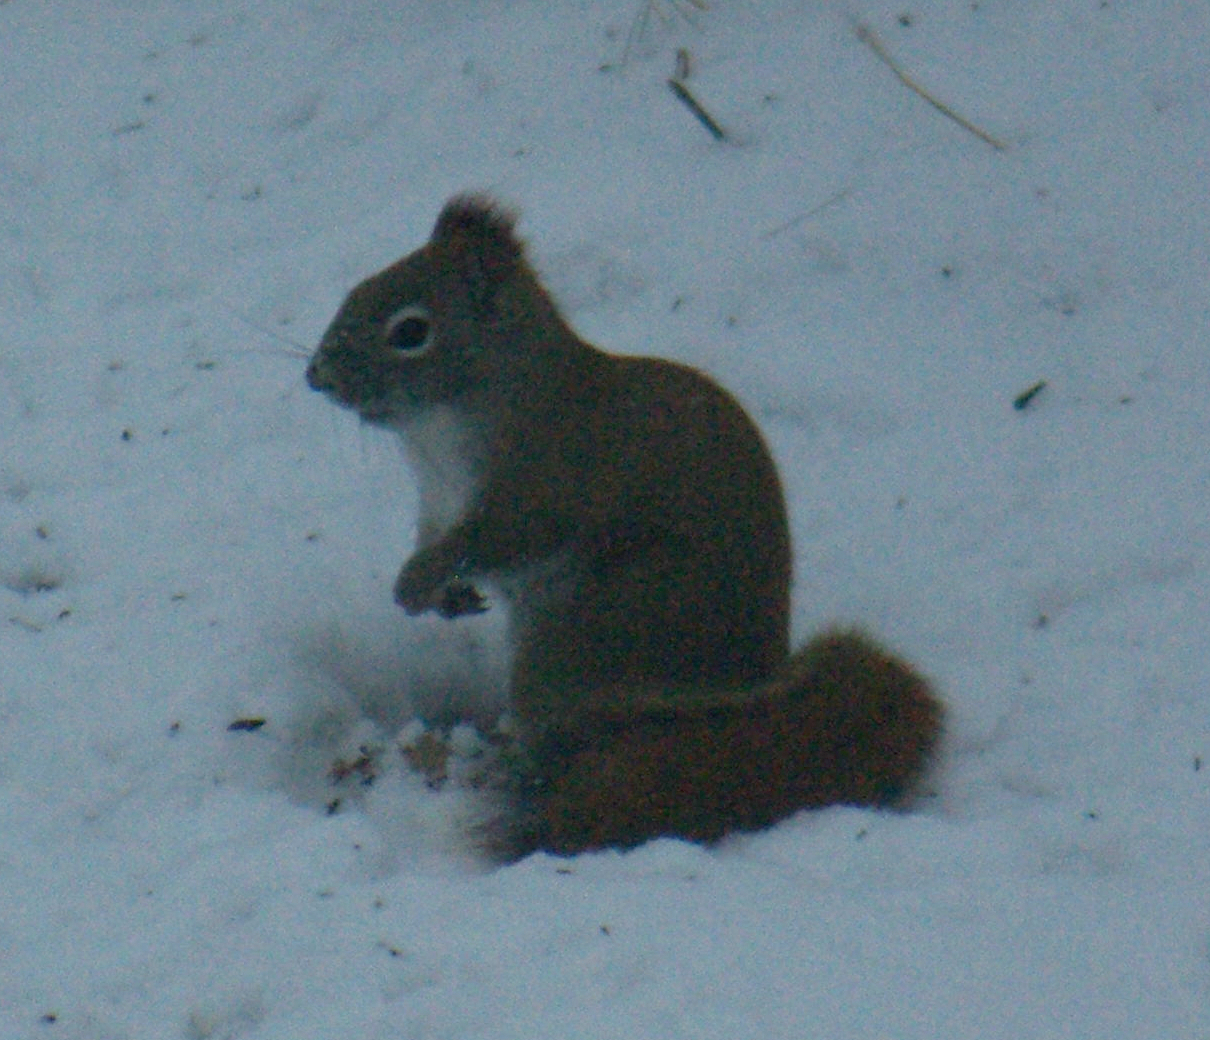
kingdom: Animalia
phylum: Chordata
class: Mammalia
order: Rodentia
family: Sciuridae
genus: Tamiasciurus
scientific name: Tamiasciurus hudsonicus
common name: Red squirrel
